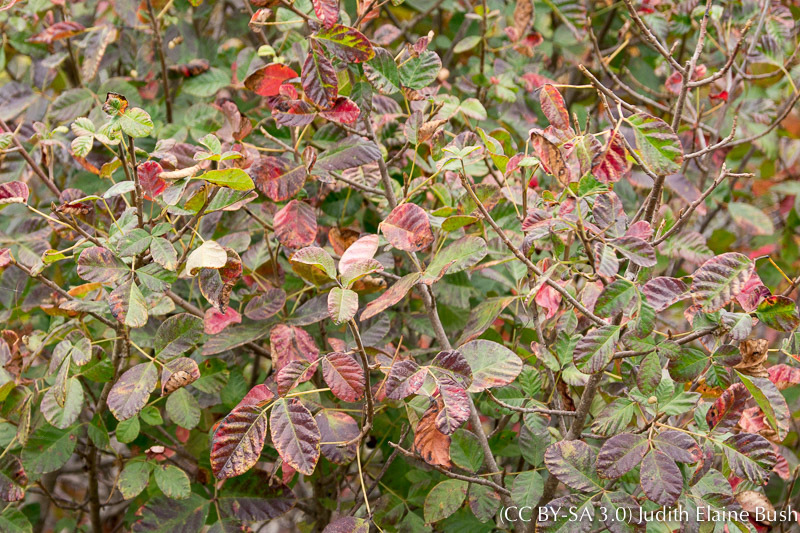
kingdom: Plantae
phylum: Tracheophyta
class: Magnoliopsida
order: Sapindales
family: Anacardiaceae
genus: Toxicodendron
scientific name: Toxicodendron diversilobum
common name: Pacific poison-oak
